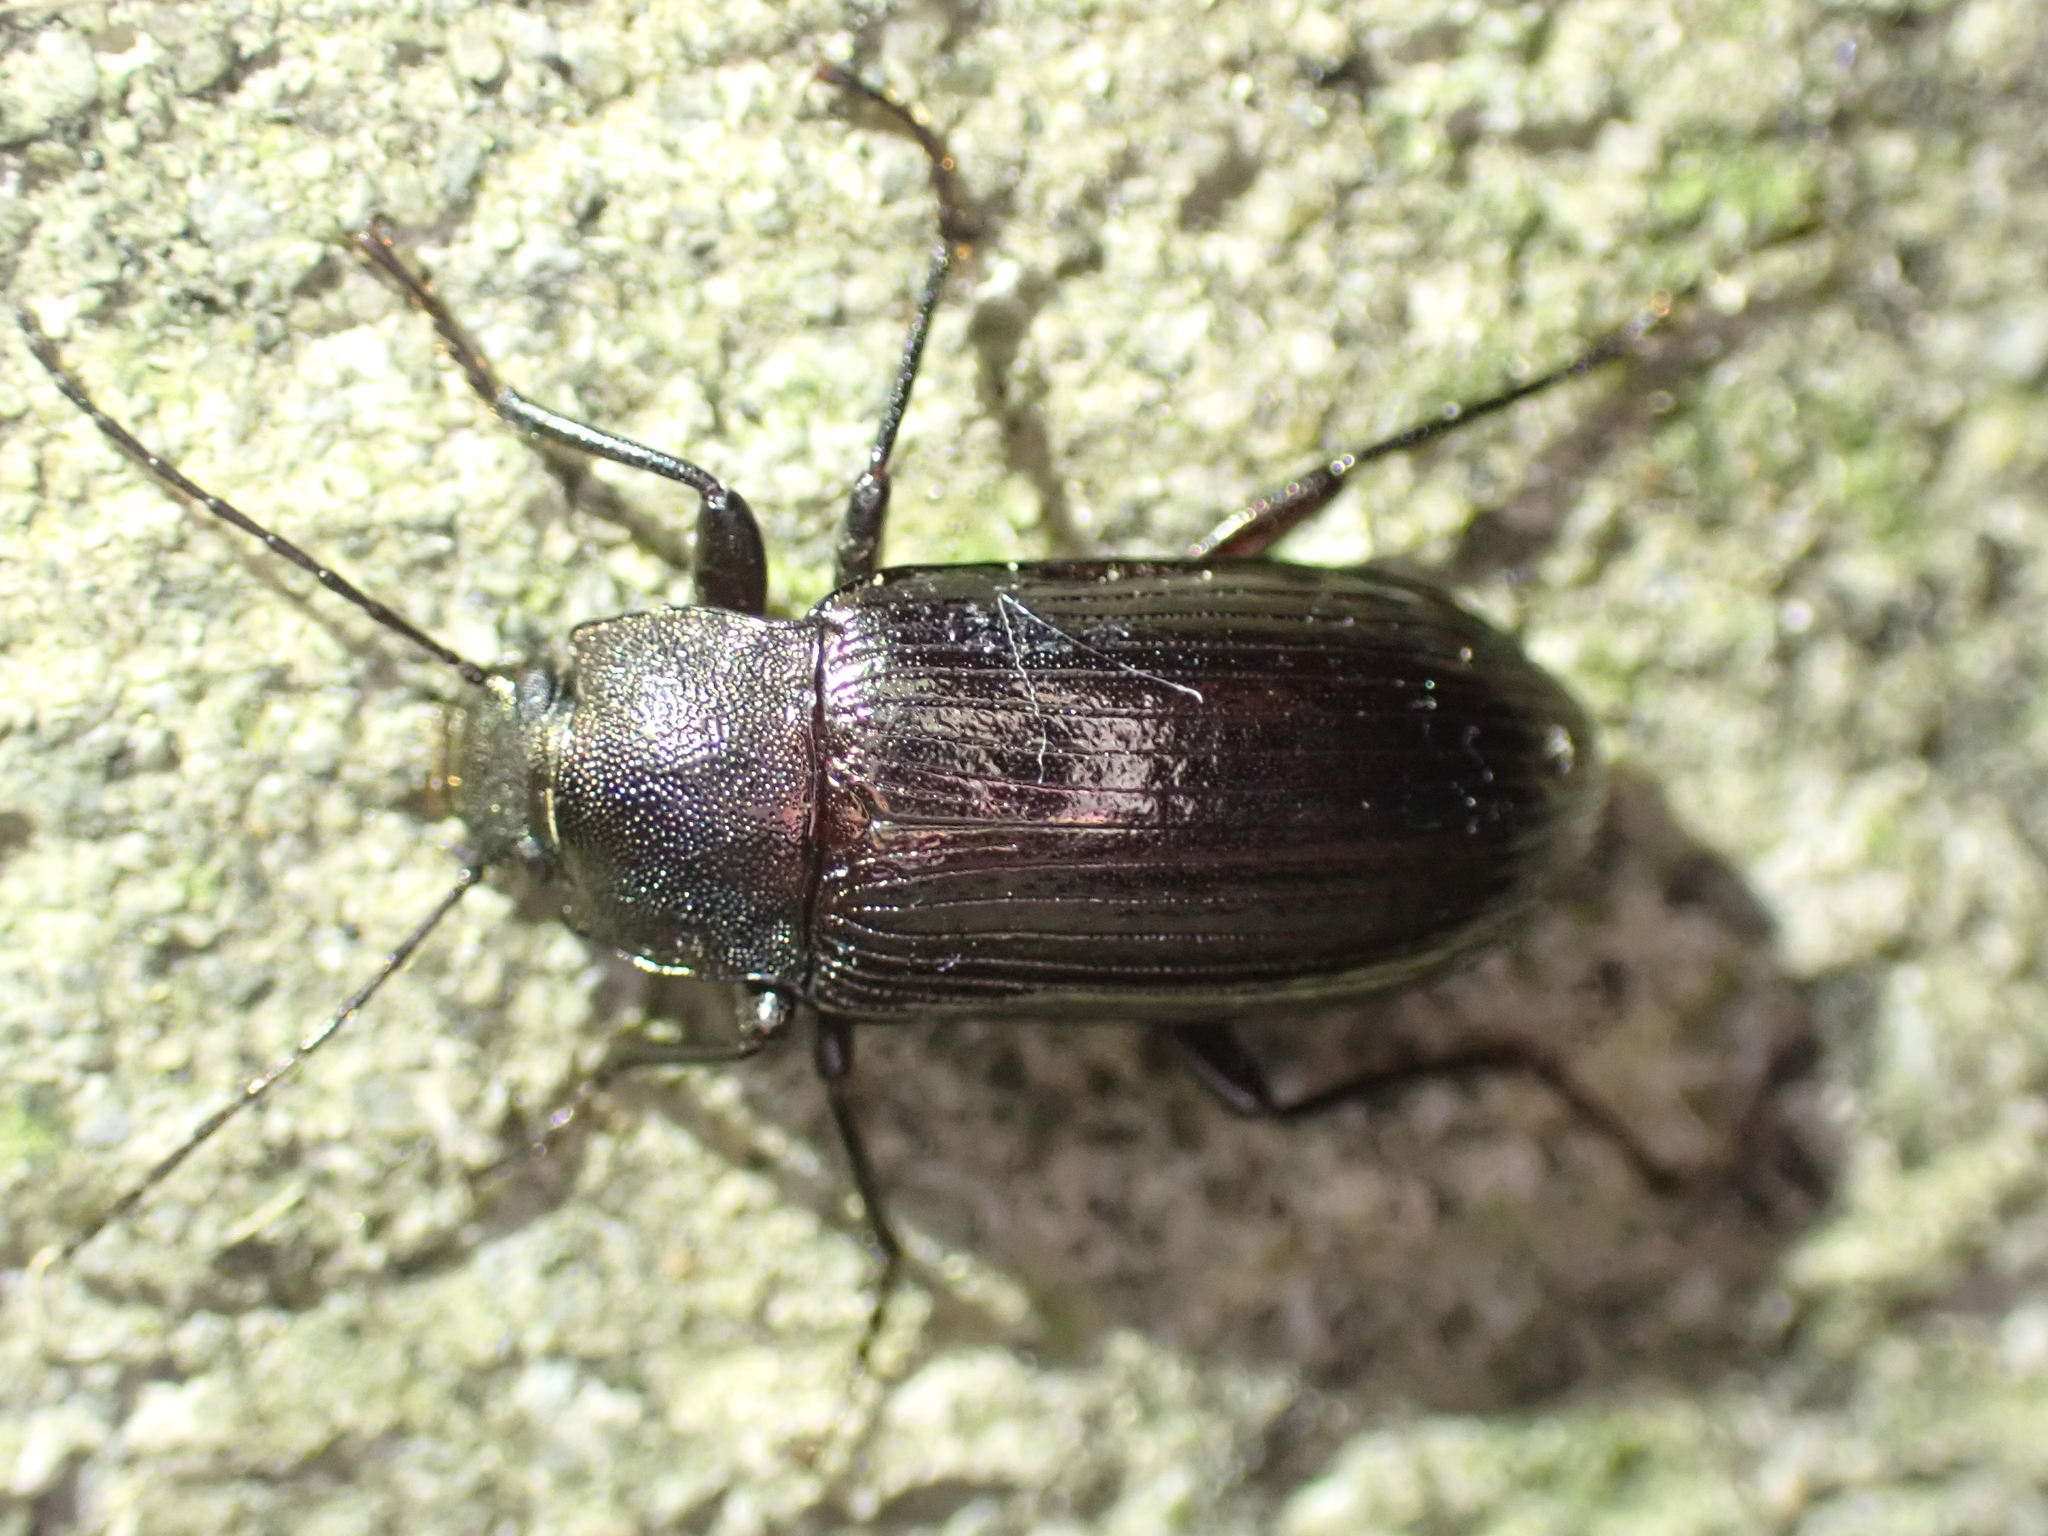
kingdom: Animalia
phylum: Arthropoda
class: Insecta
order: Coleoptera
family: Tenebrionidae
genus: Tarpela
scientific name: Tarpela undulata
